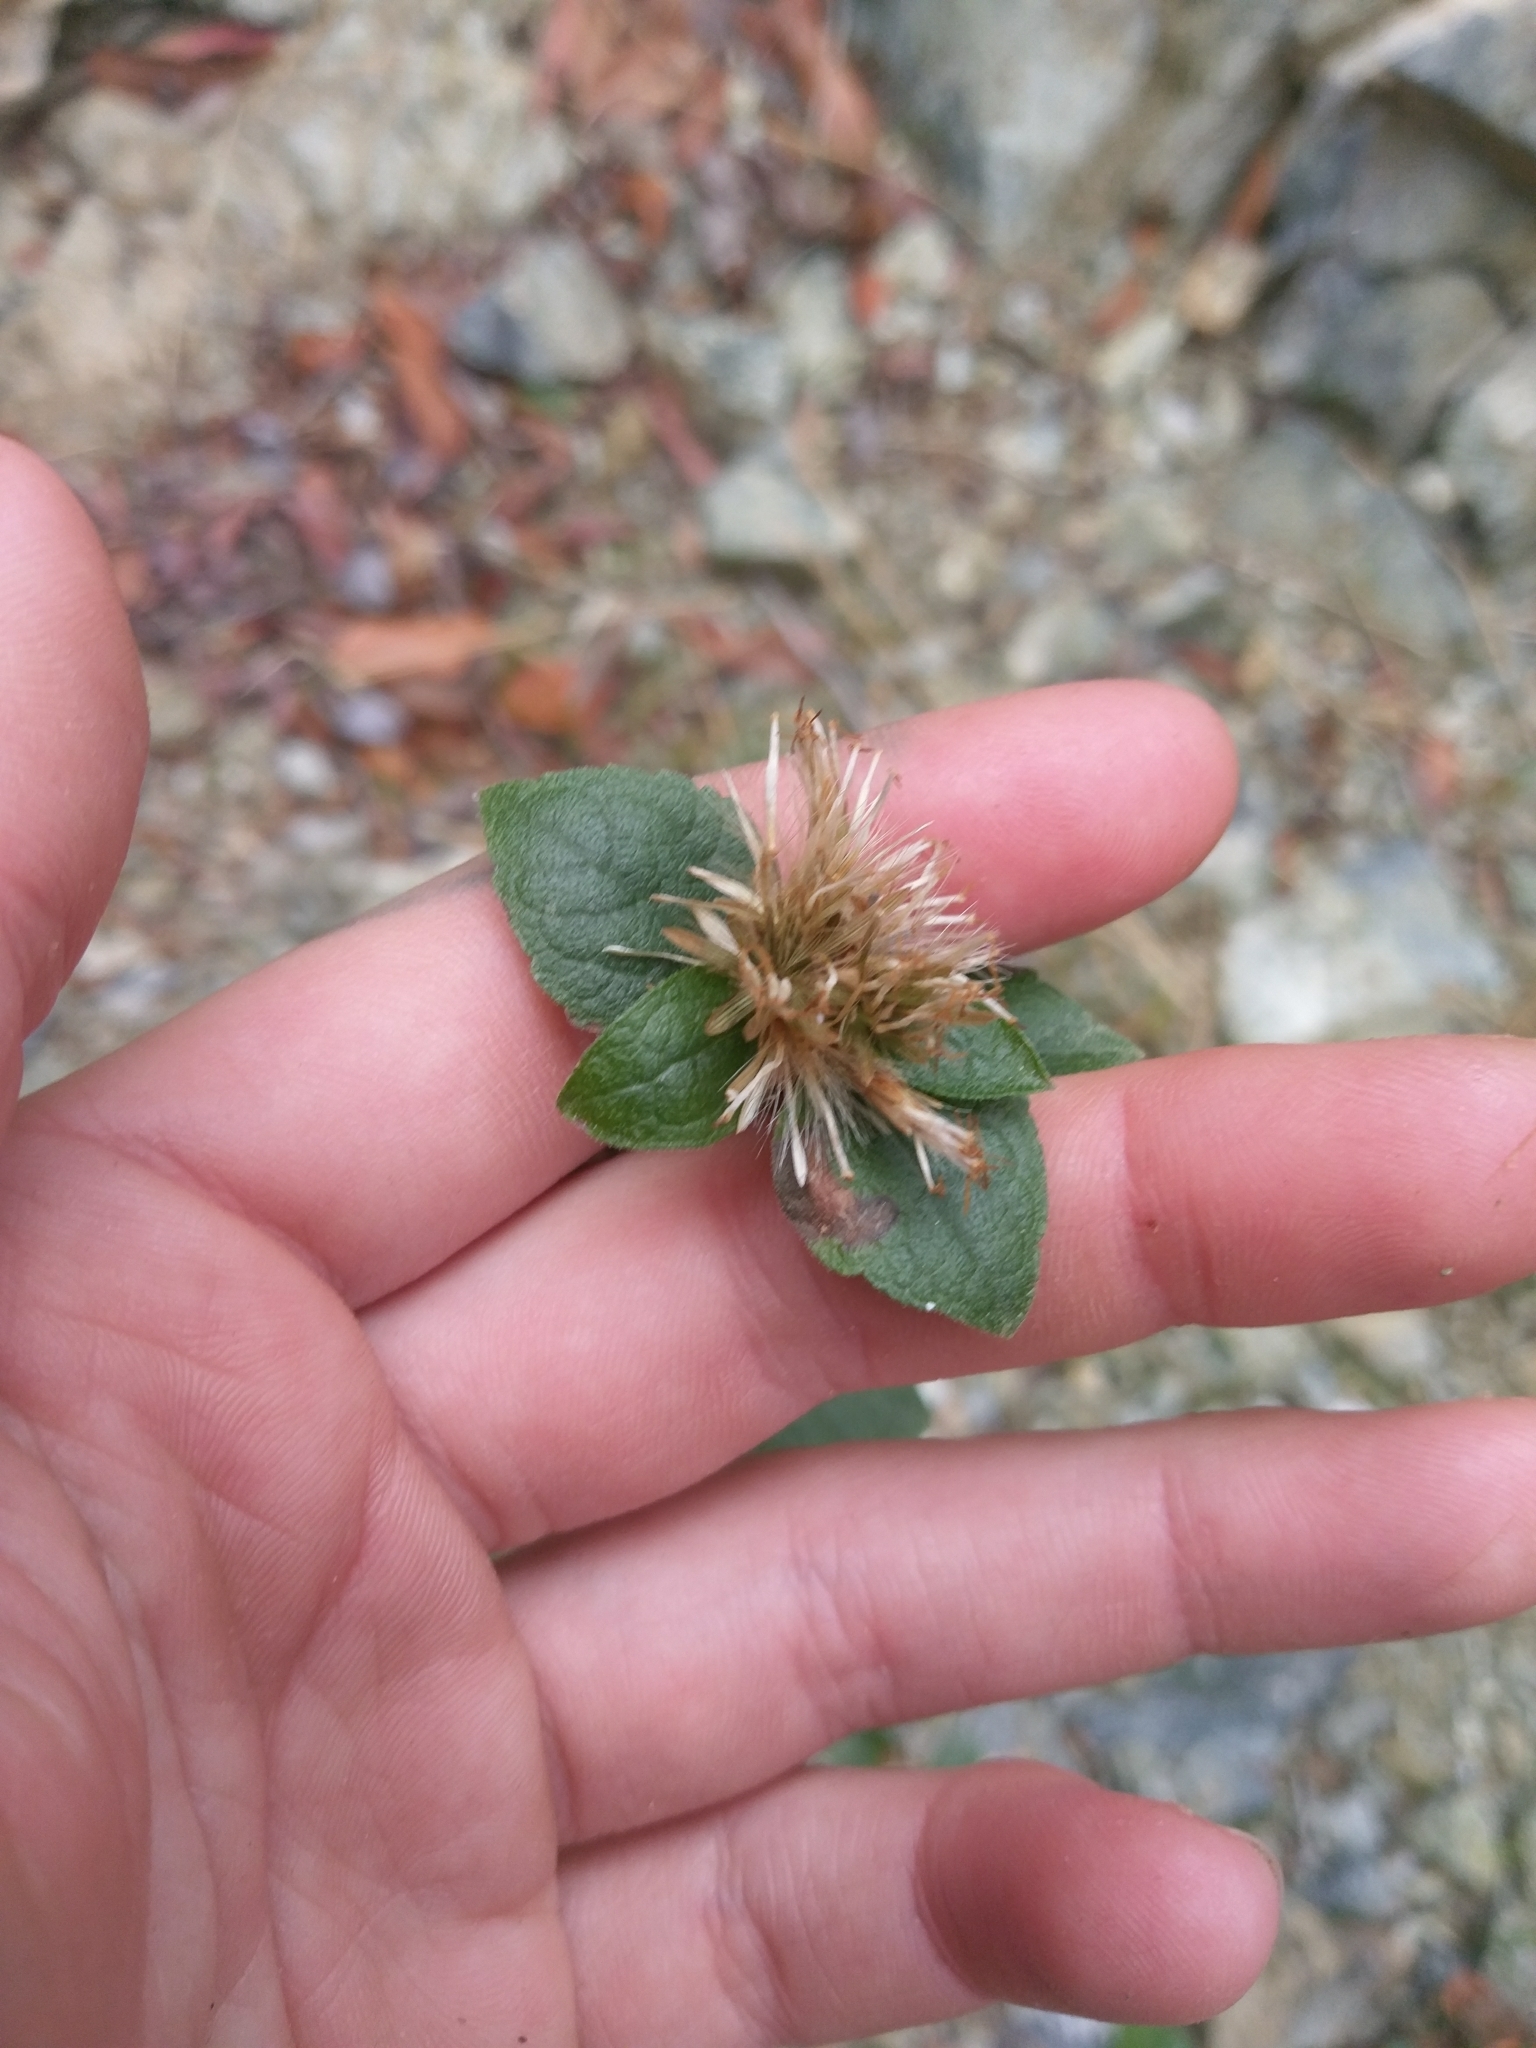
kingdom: Plantae
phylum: Tracheophyta
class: Magnoliopsida
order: Asterales
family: Asteraceae
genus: Brickellia
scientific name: Brickellia californica
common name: California brickellbush
